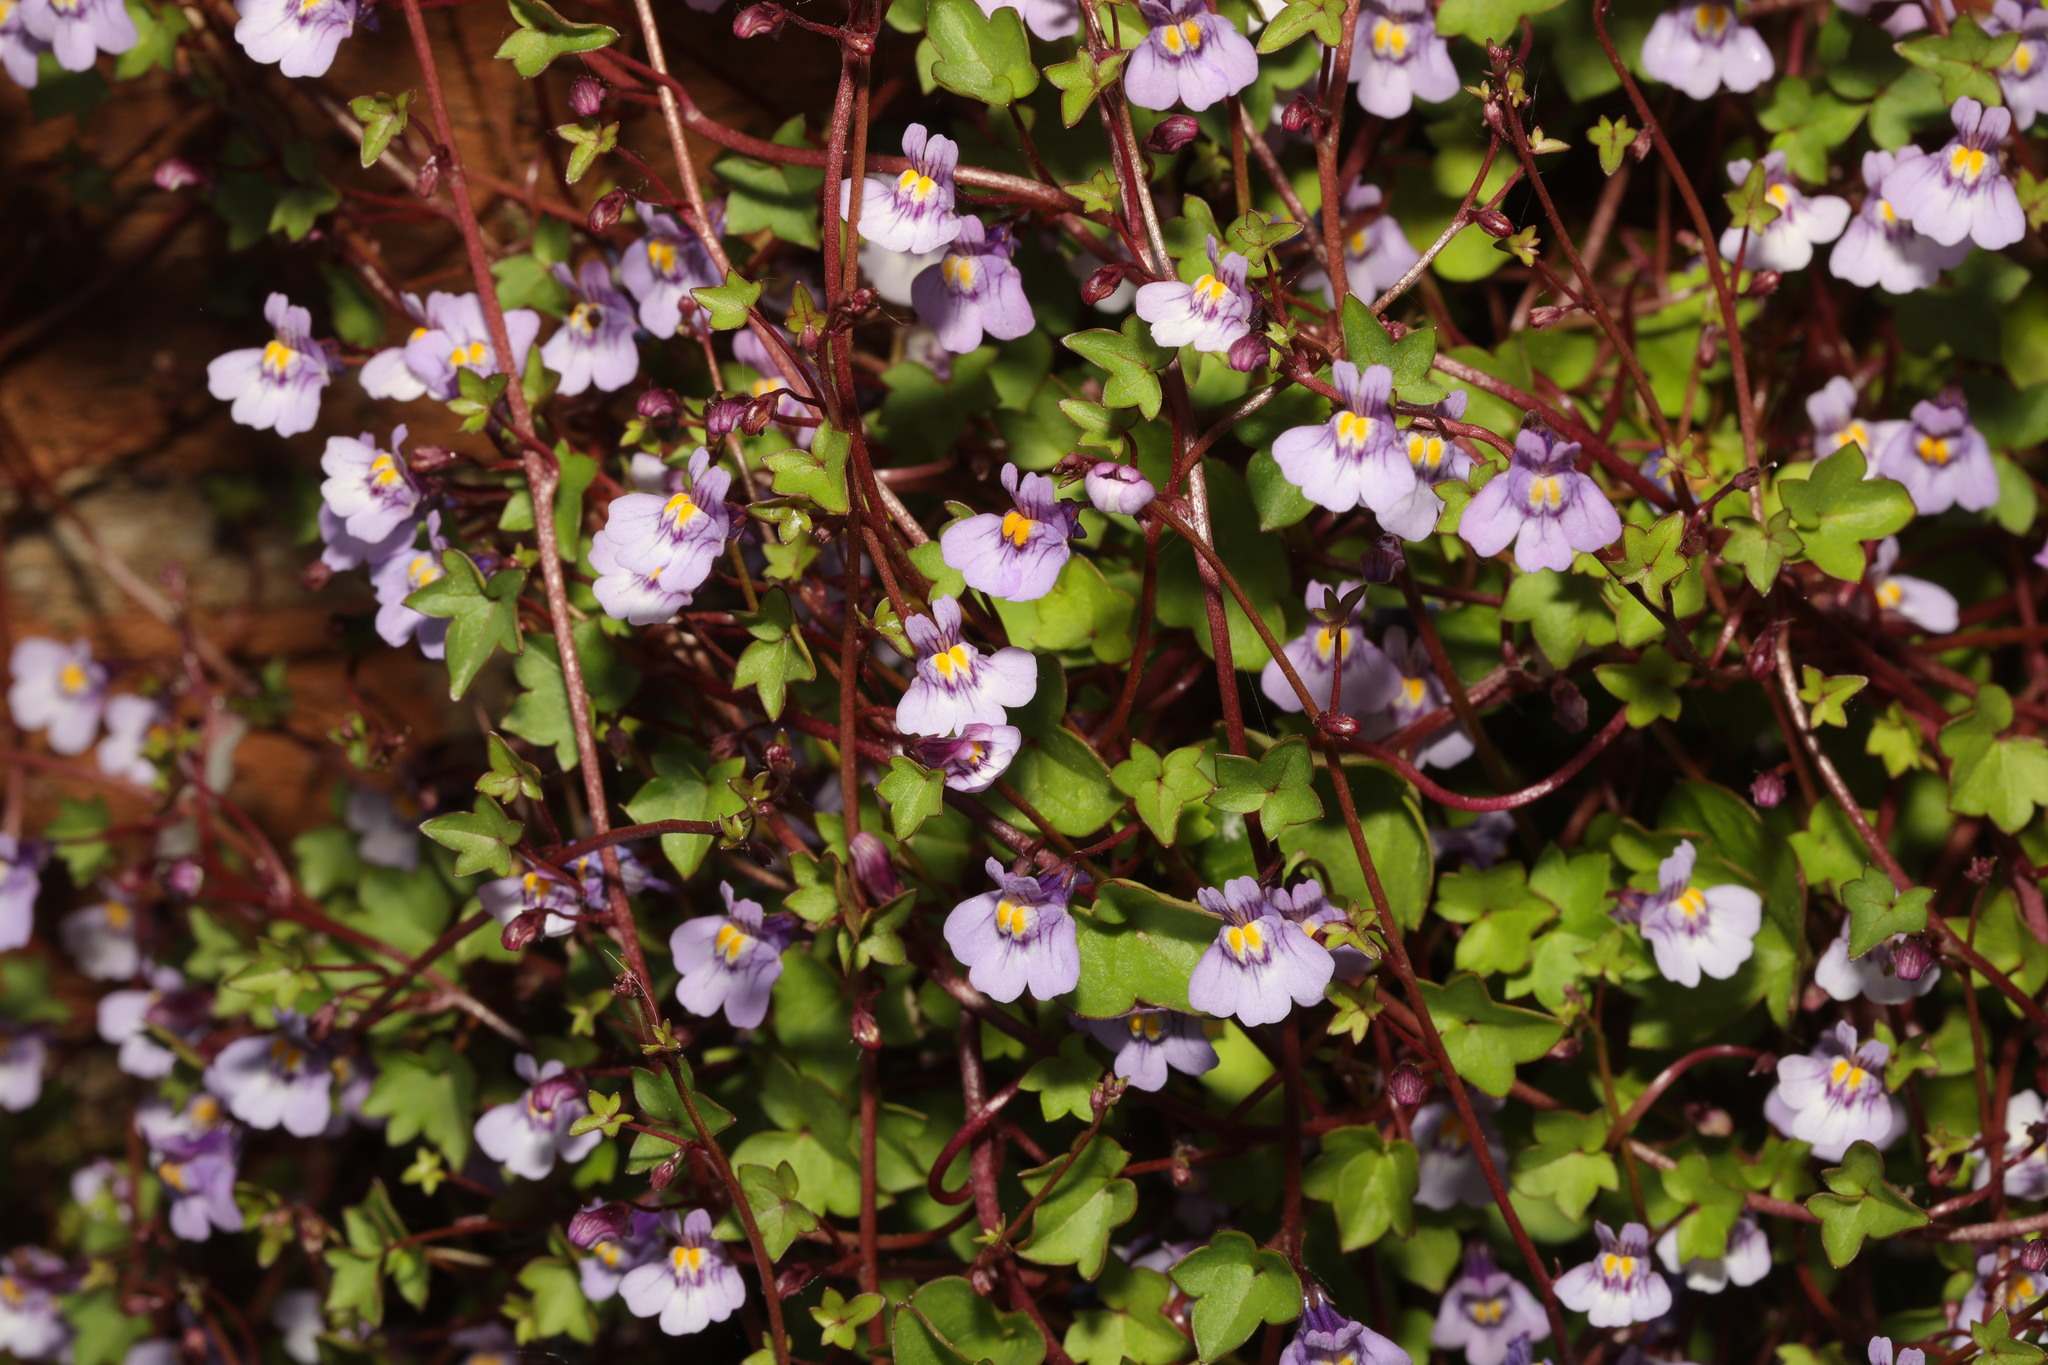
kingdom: Plantae
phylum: Tracheophyta
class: Magnoliopsida
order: Lamiales
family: Plantaginaceae
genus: Cymbalaria
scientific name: Cymbalaria muralis
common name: Ivy-leaved toadflax
